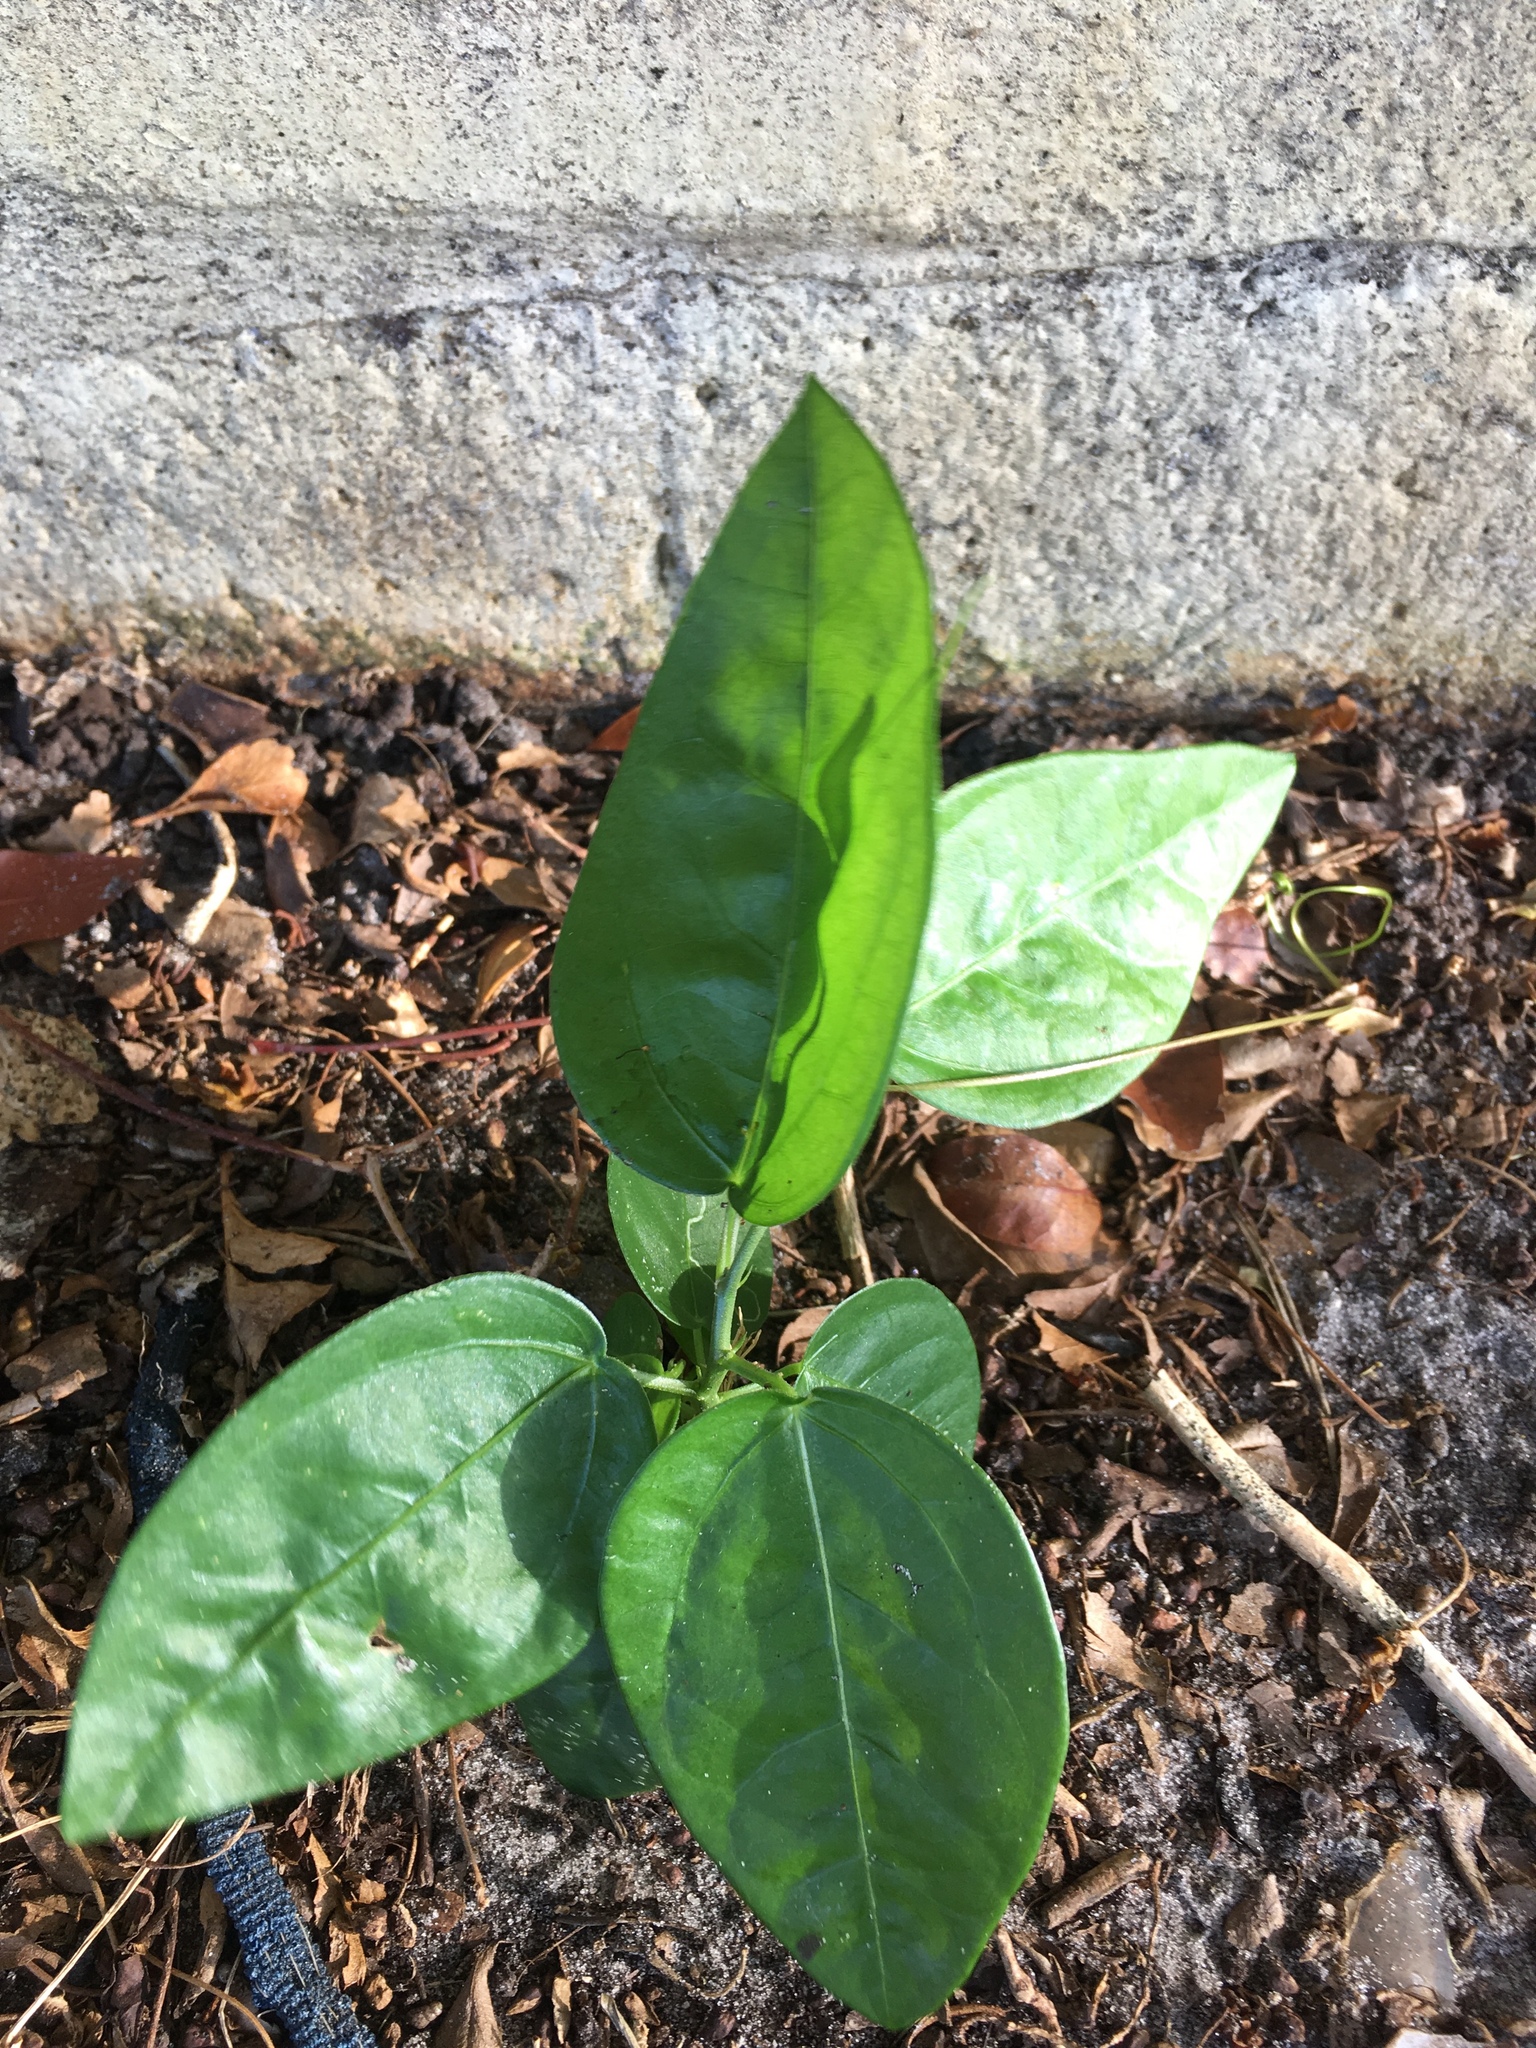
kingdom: Plantae
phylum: Tracheophyta
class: Magnoliopsida
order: Malpighiales
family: Passifloraceae
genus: Passiflora
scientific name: Passiflora pallida
